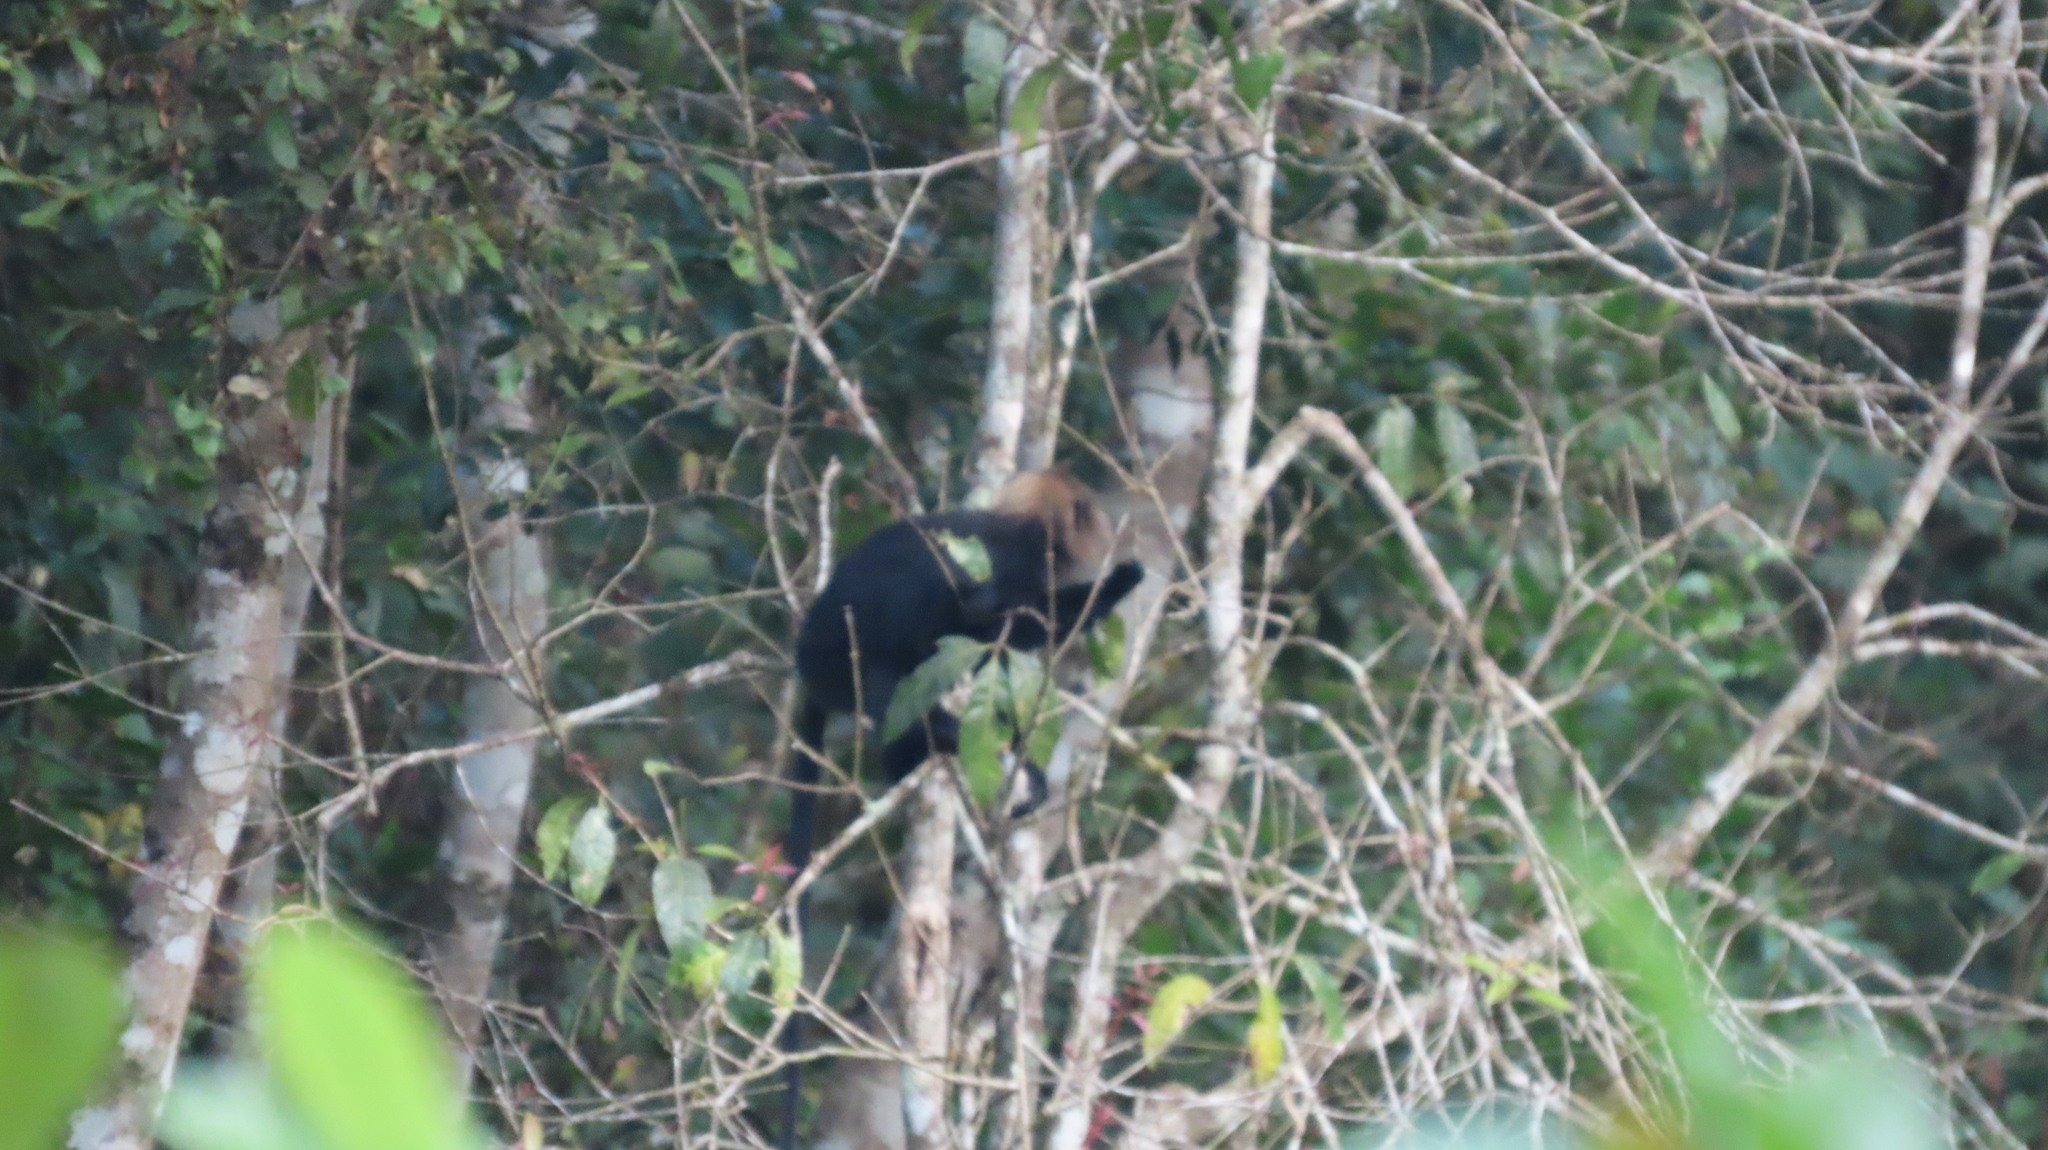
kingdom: Animalia
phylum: Chordata
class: Mammalia
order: Primates
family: Cercopithecidae
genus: Semnopithecus
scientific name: Semnopithecus johnii
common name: Nilgiri langur
